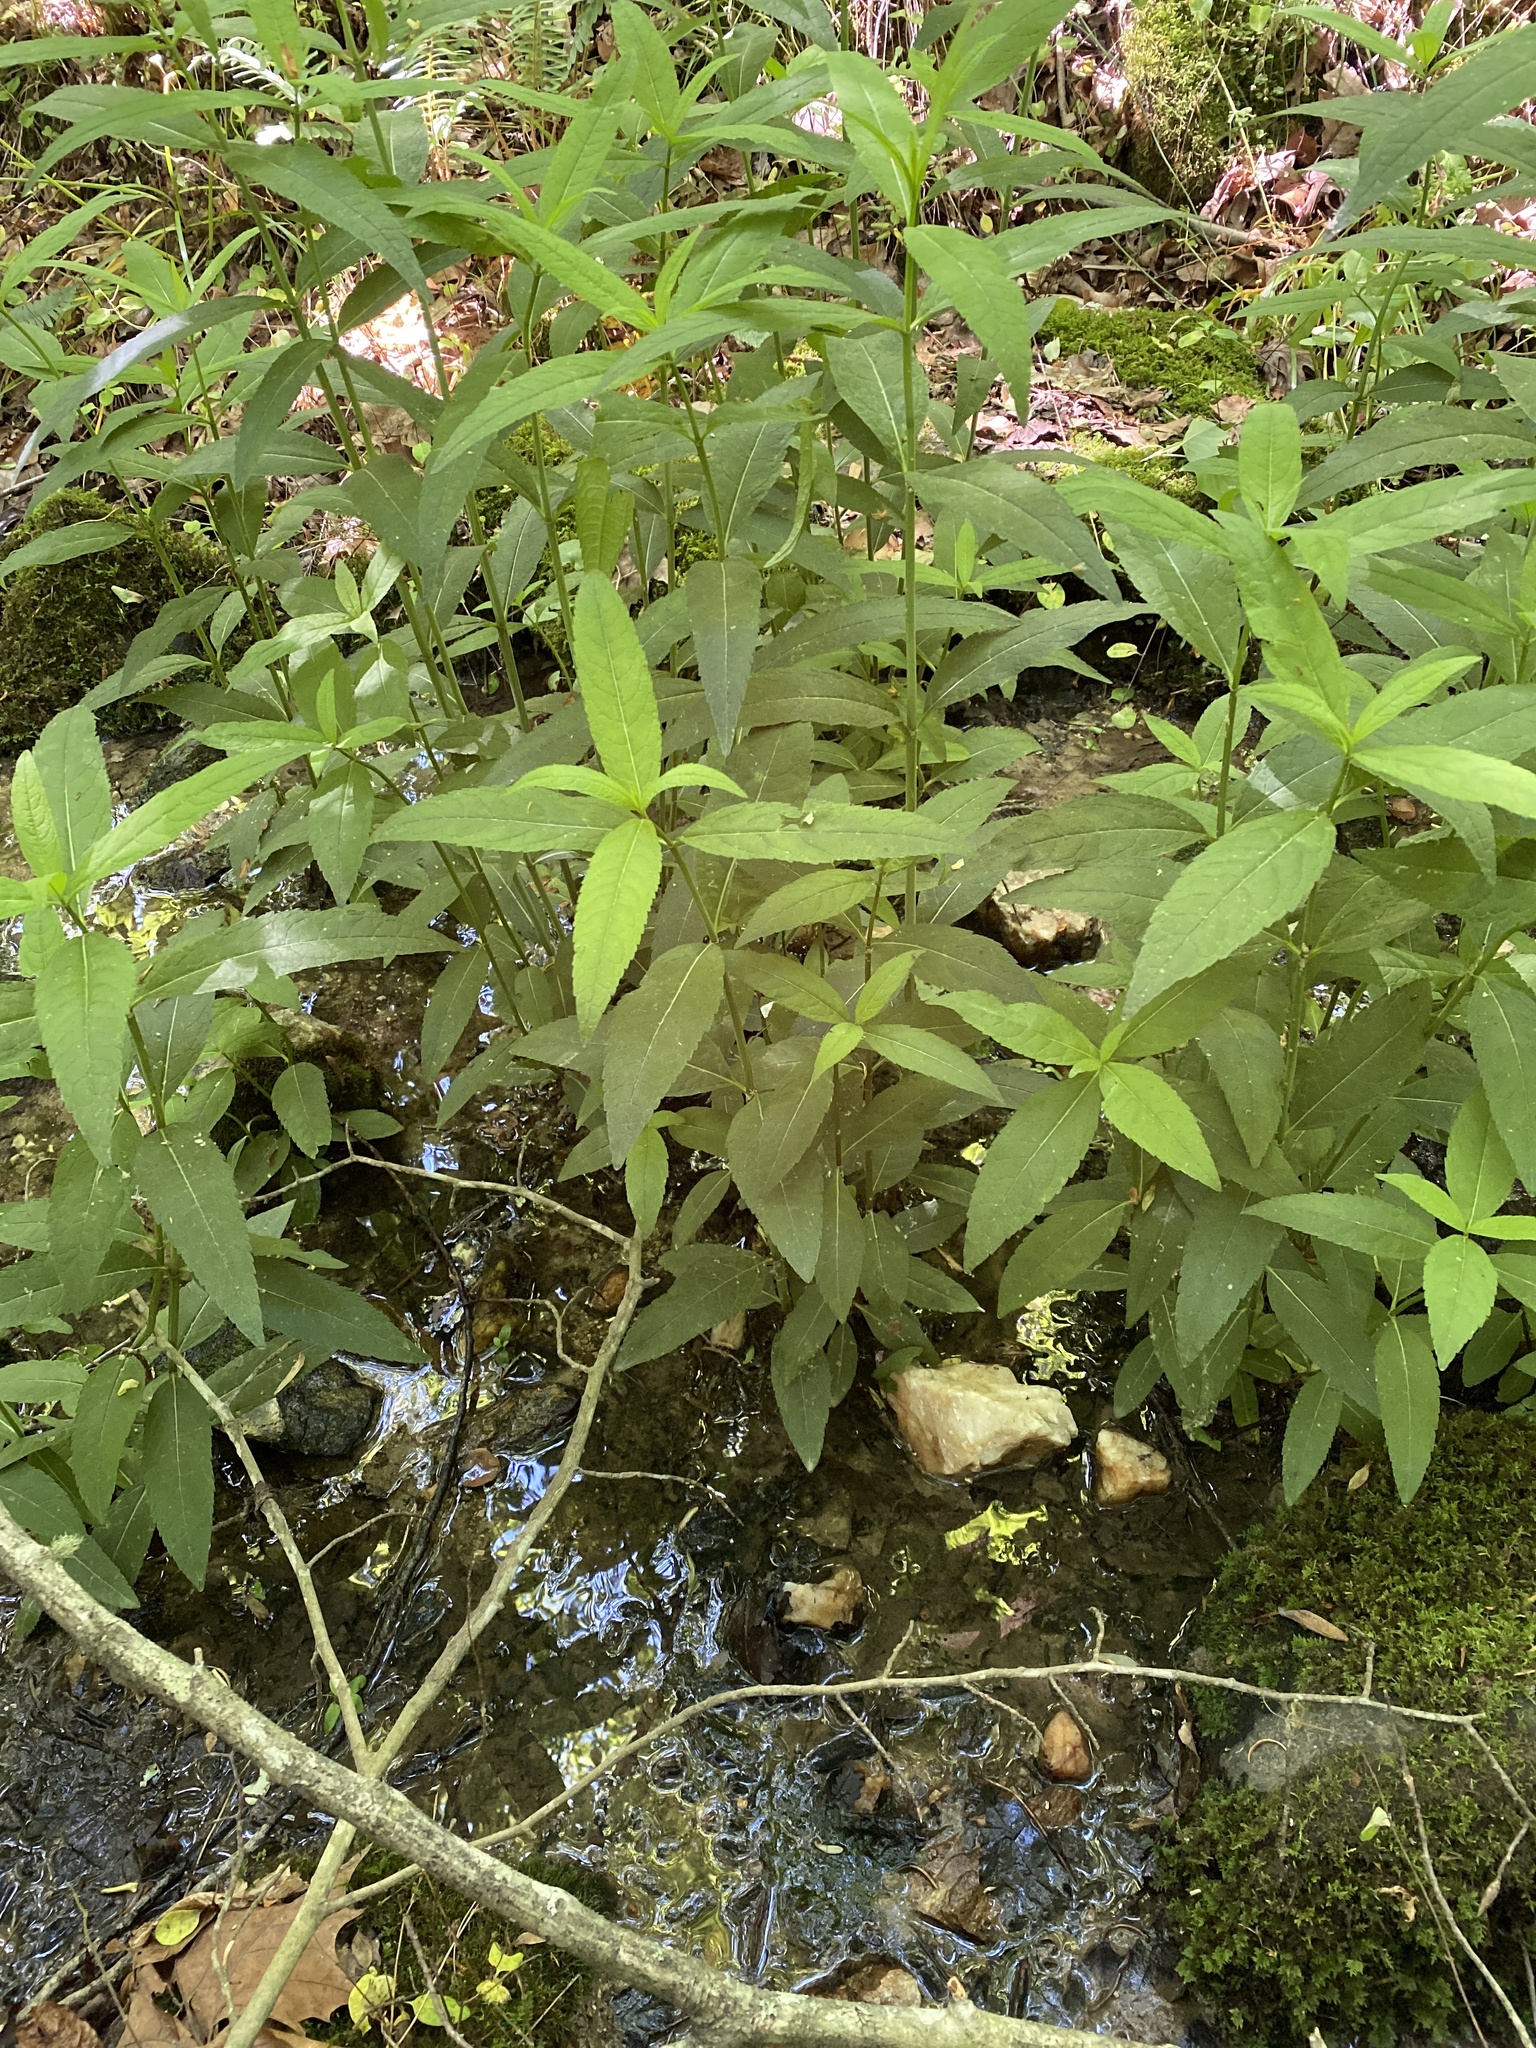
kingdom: Plantae
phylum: Tracheophyta
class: Magnoliopsida
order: Lamiales
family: Plantaginaceae
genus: Chelone
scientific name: Chelone glabra
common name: Snakehead
